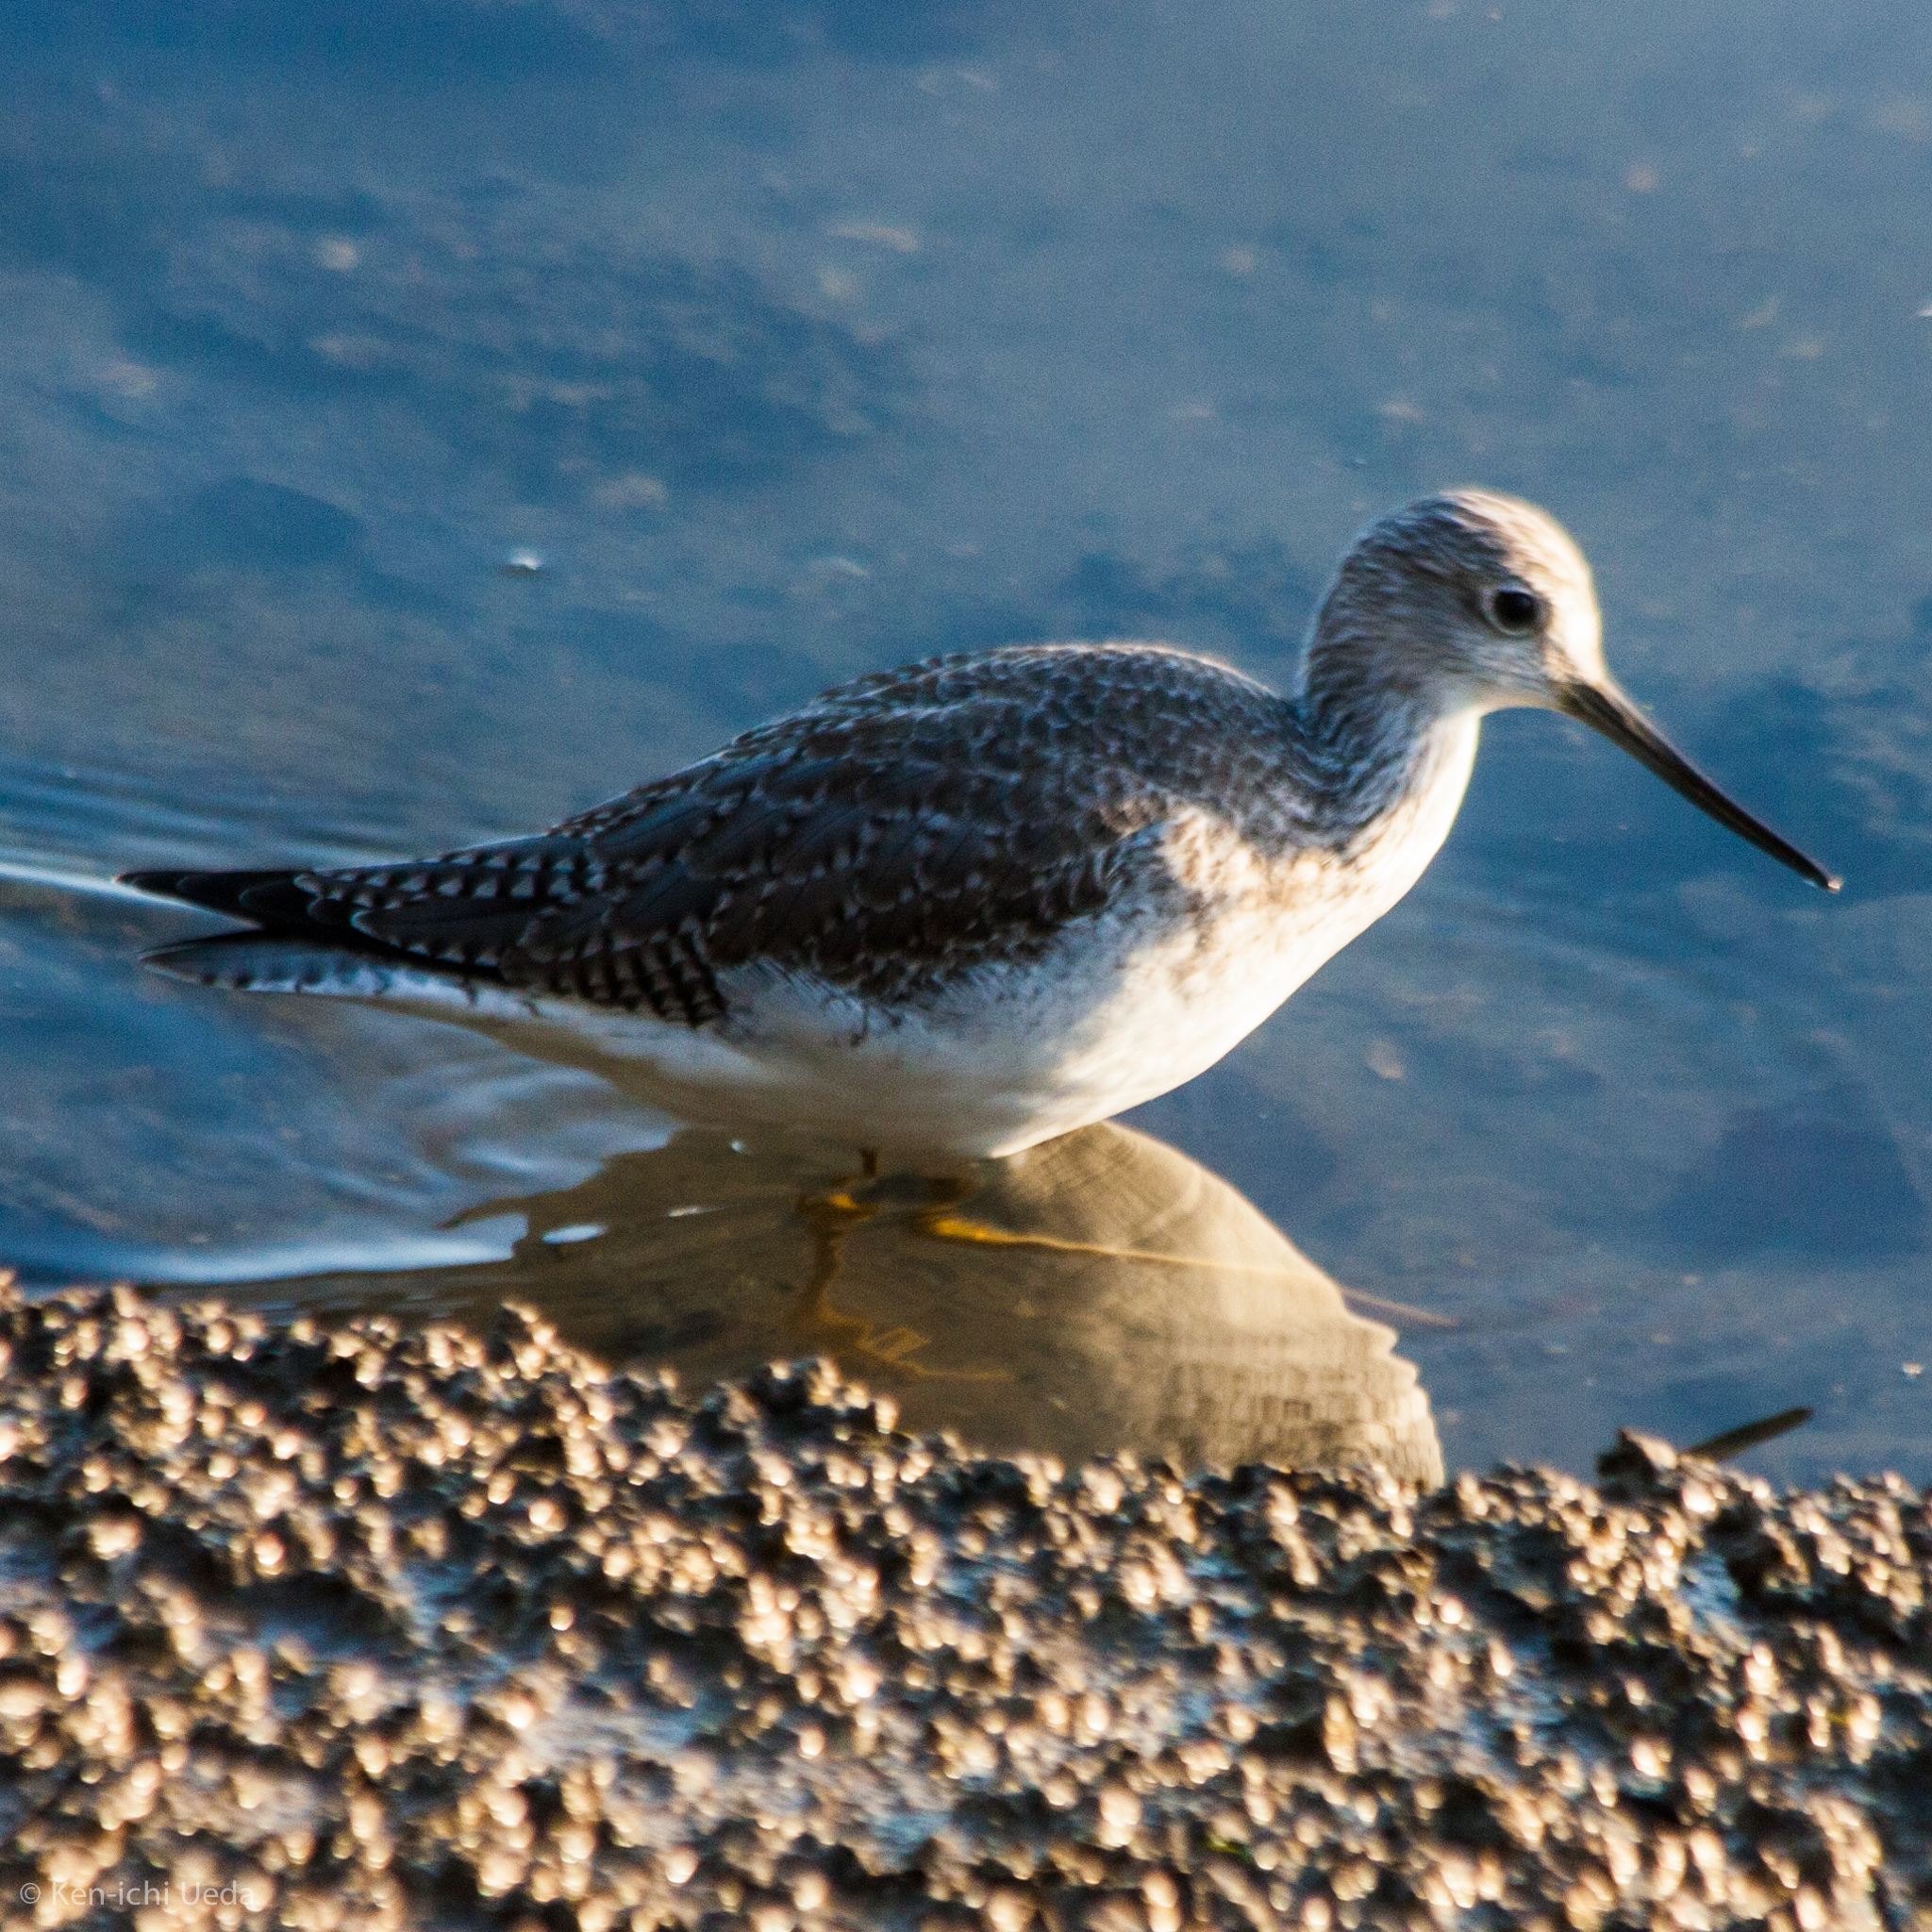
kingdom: Animalia
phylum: Chordata
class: Aves
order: Charadriiformes
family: Scolopacidae
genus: Tringa
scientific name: Tringa melanoleuca
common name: Greater yellowlegs
